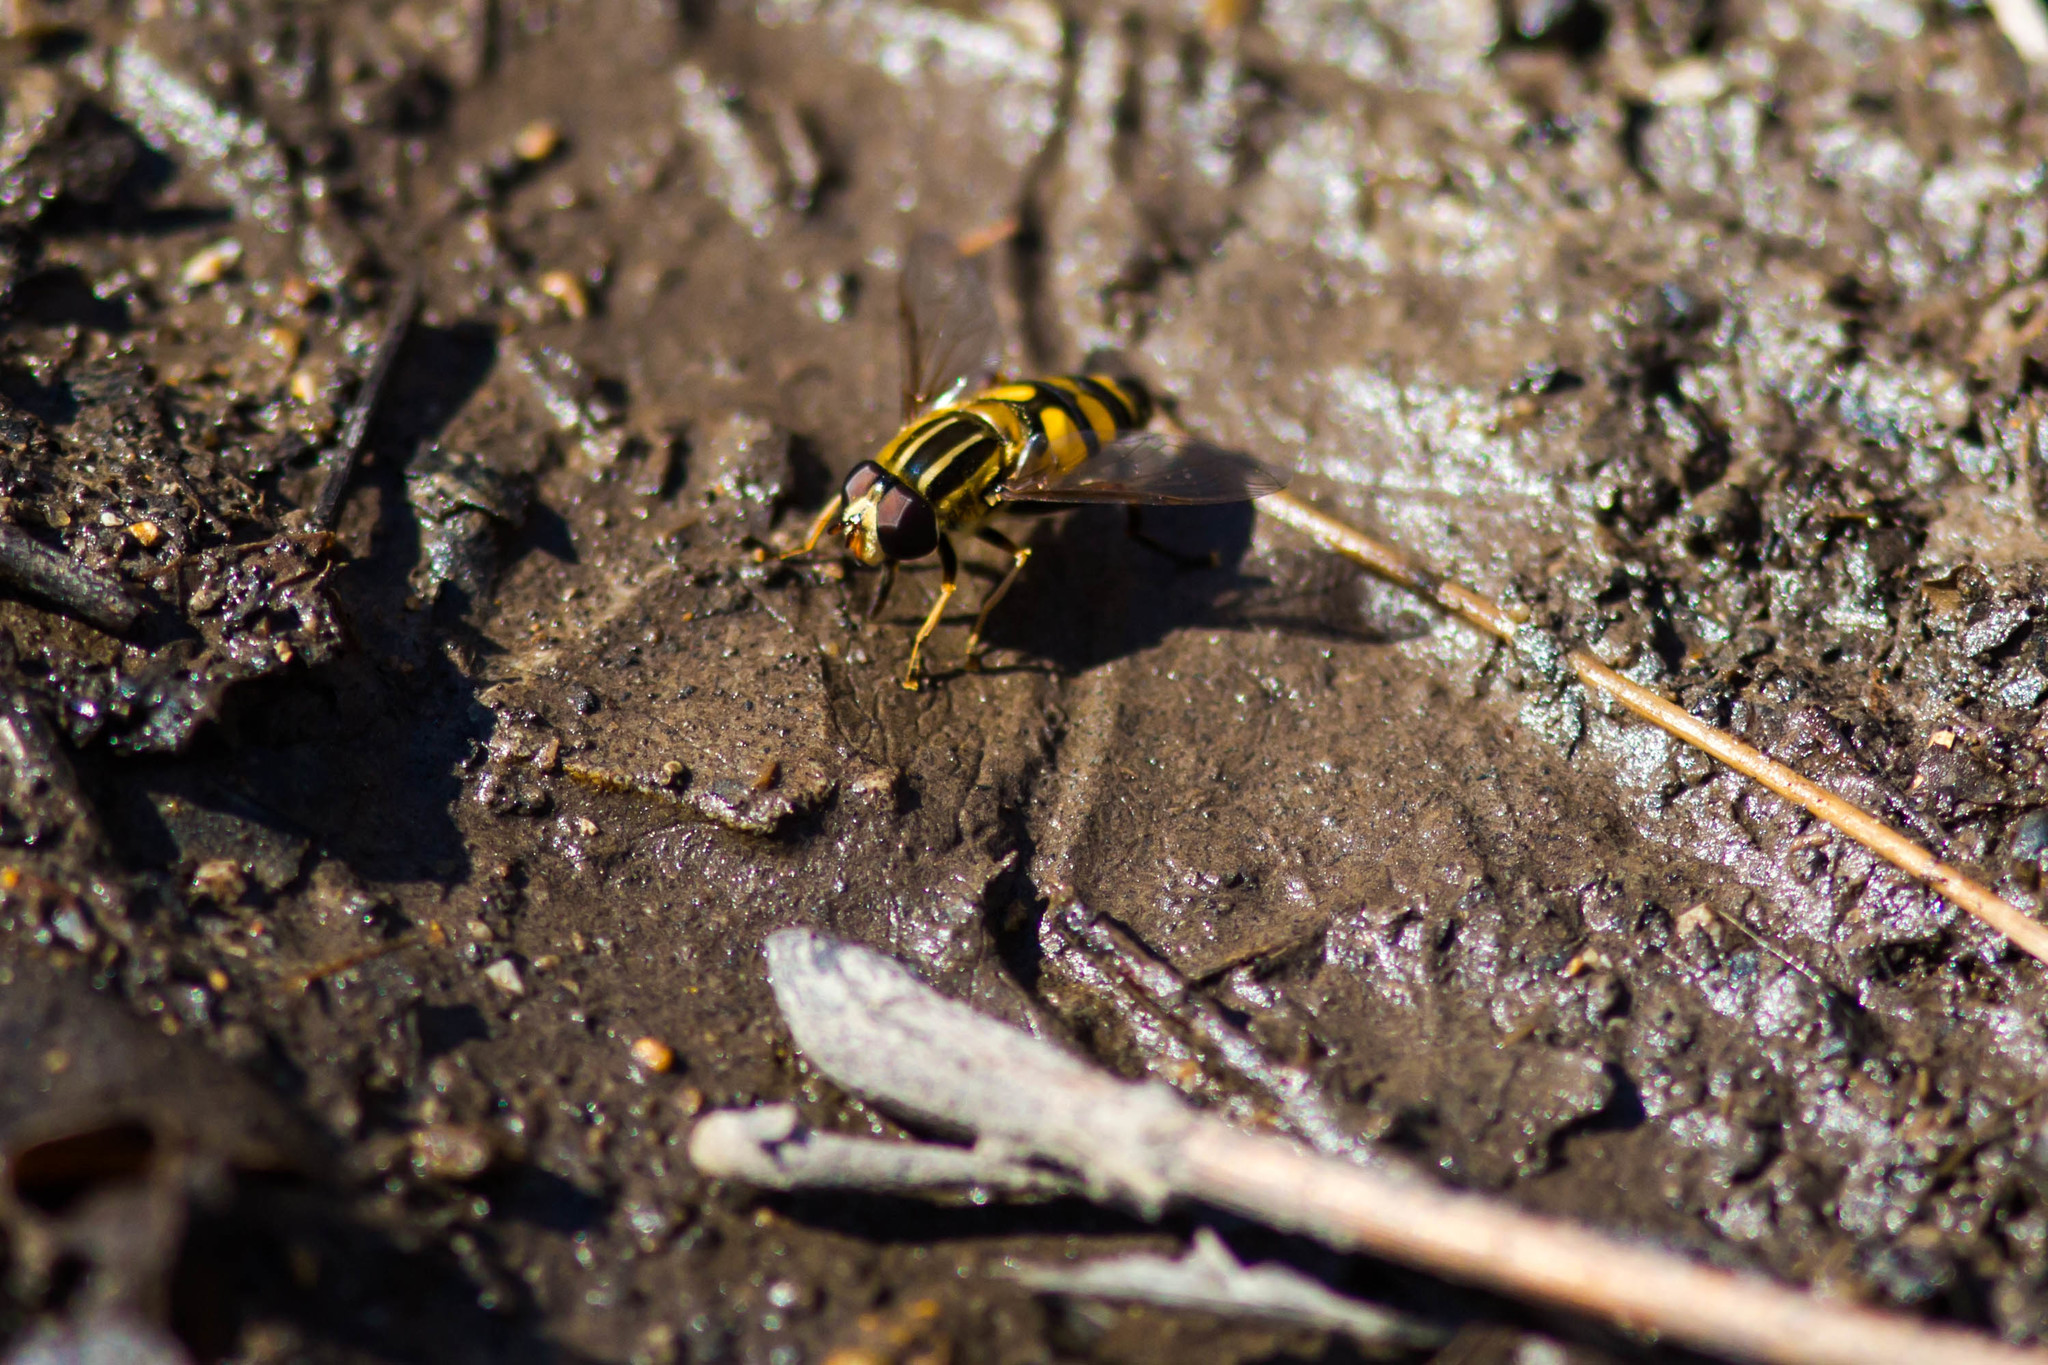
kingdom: Animalia
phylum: Arthropoda
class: Insecta
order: Diptera
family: Syrphidae
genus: Helophilus
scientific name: Helophilus fasciatus
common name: Narrow-headed marsh fly
